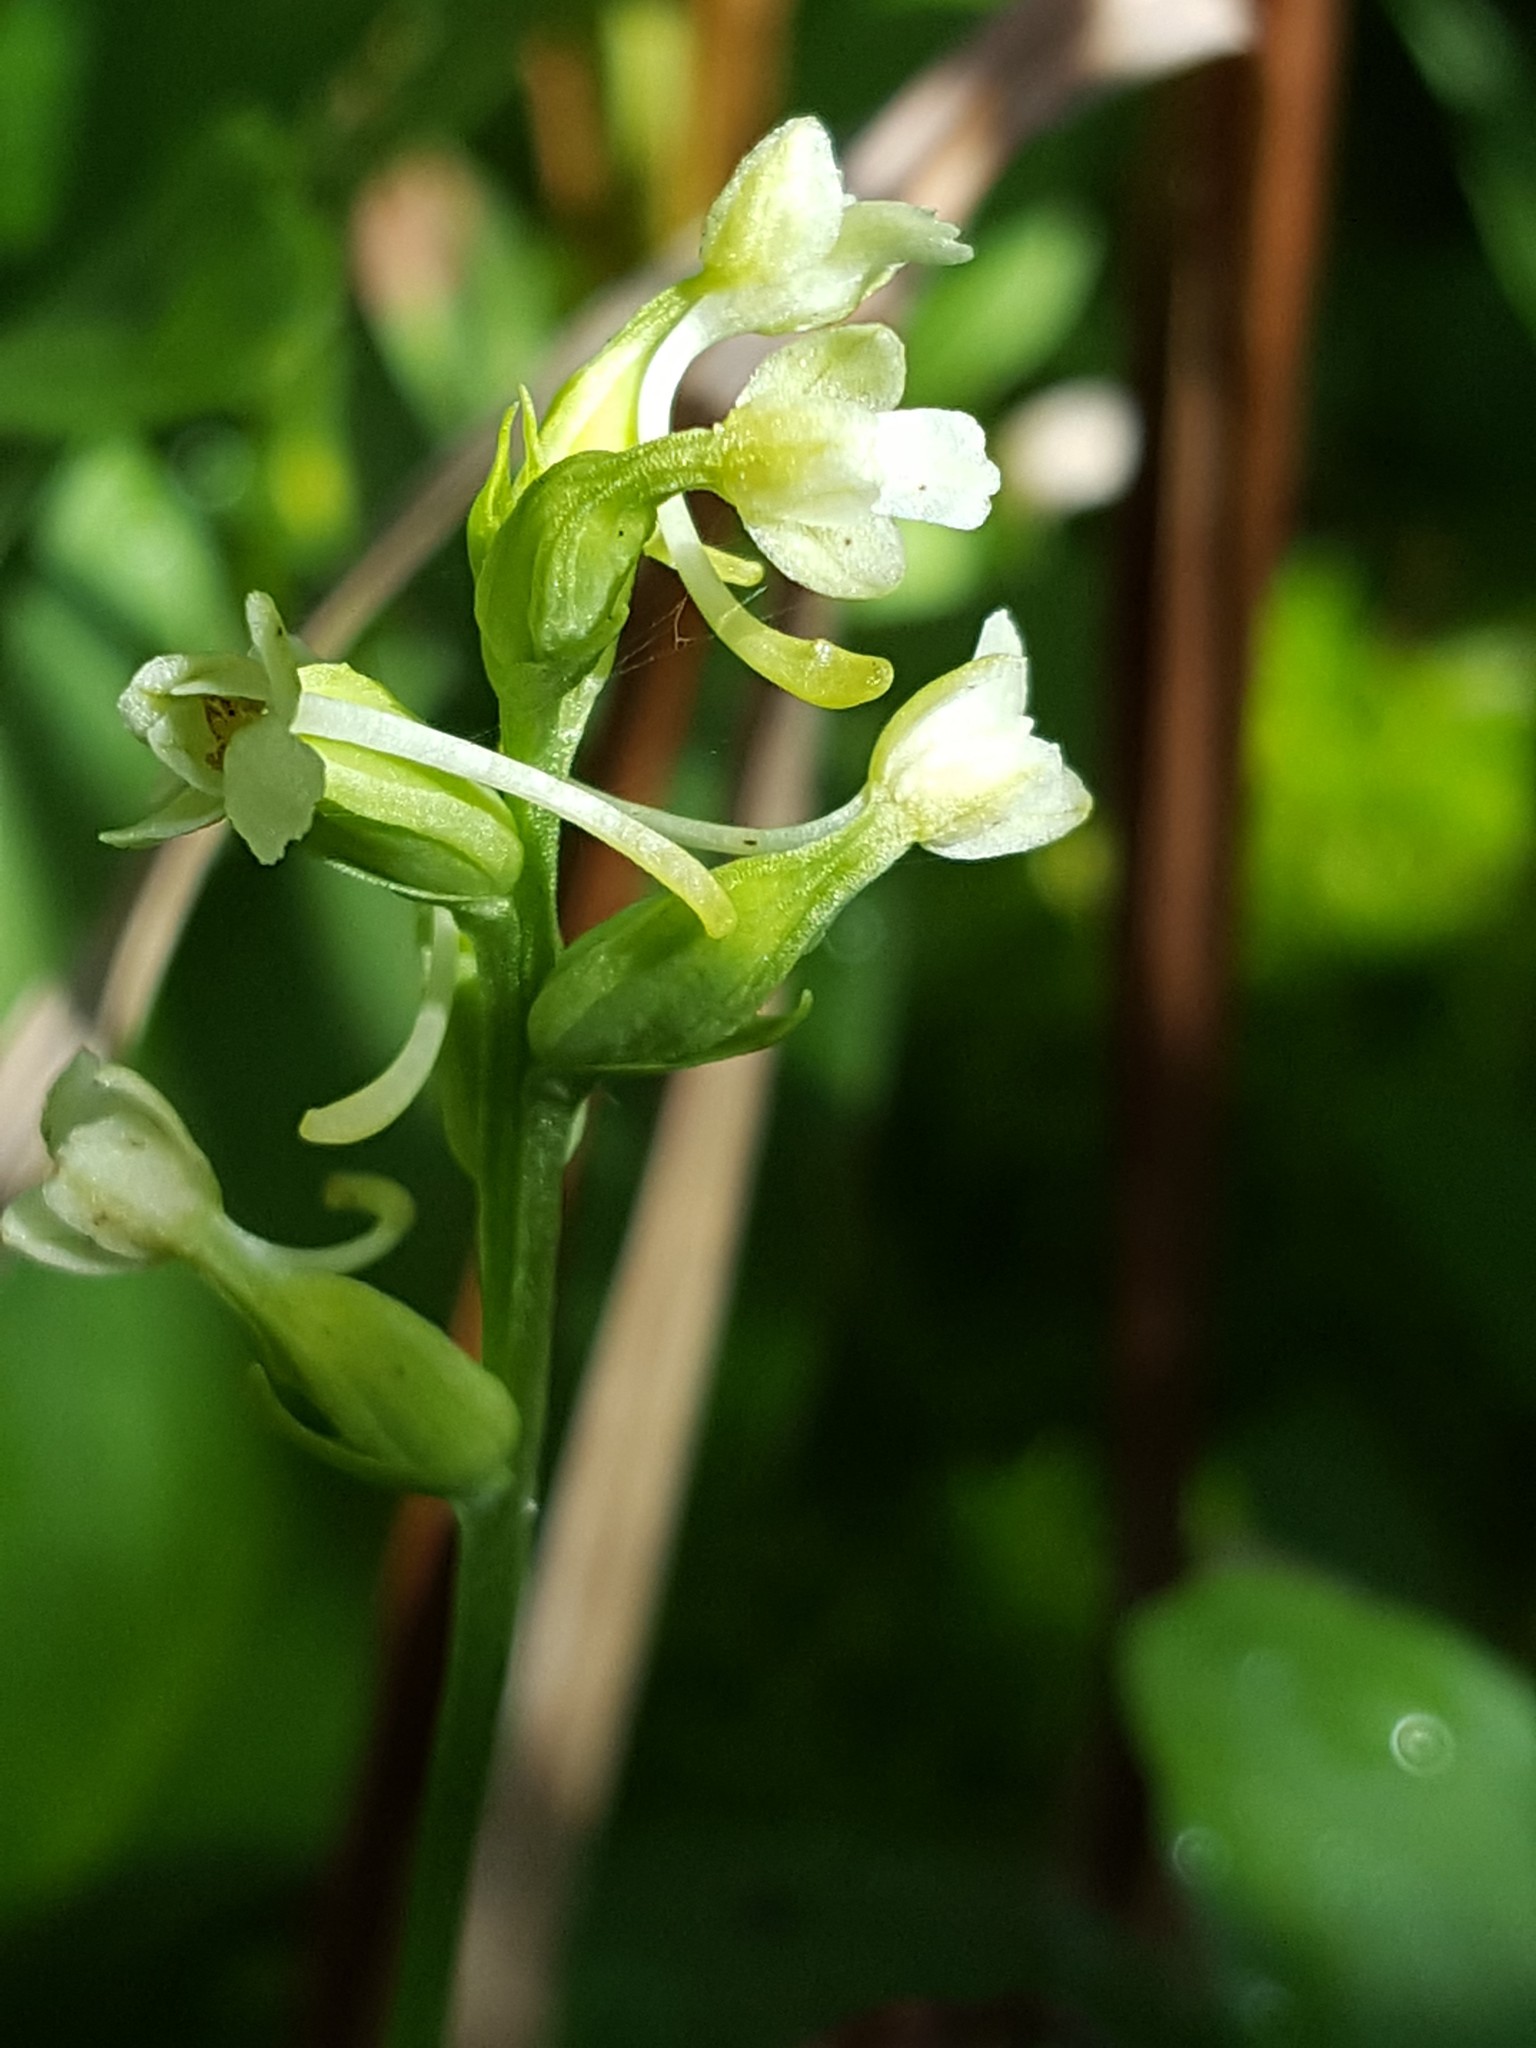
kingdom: Plantae
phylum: Tracheophyta
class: Liliopsida
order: Asparagales
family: Orchidaceae
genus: Platanthera
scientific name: Platanthera clavellata
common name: Club-spur orchid
